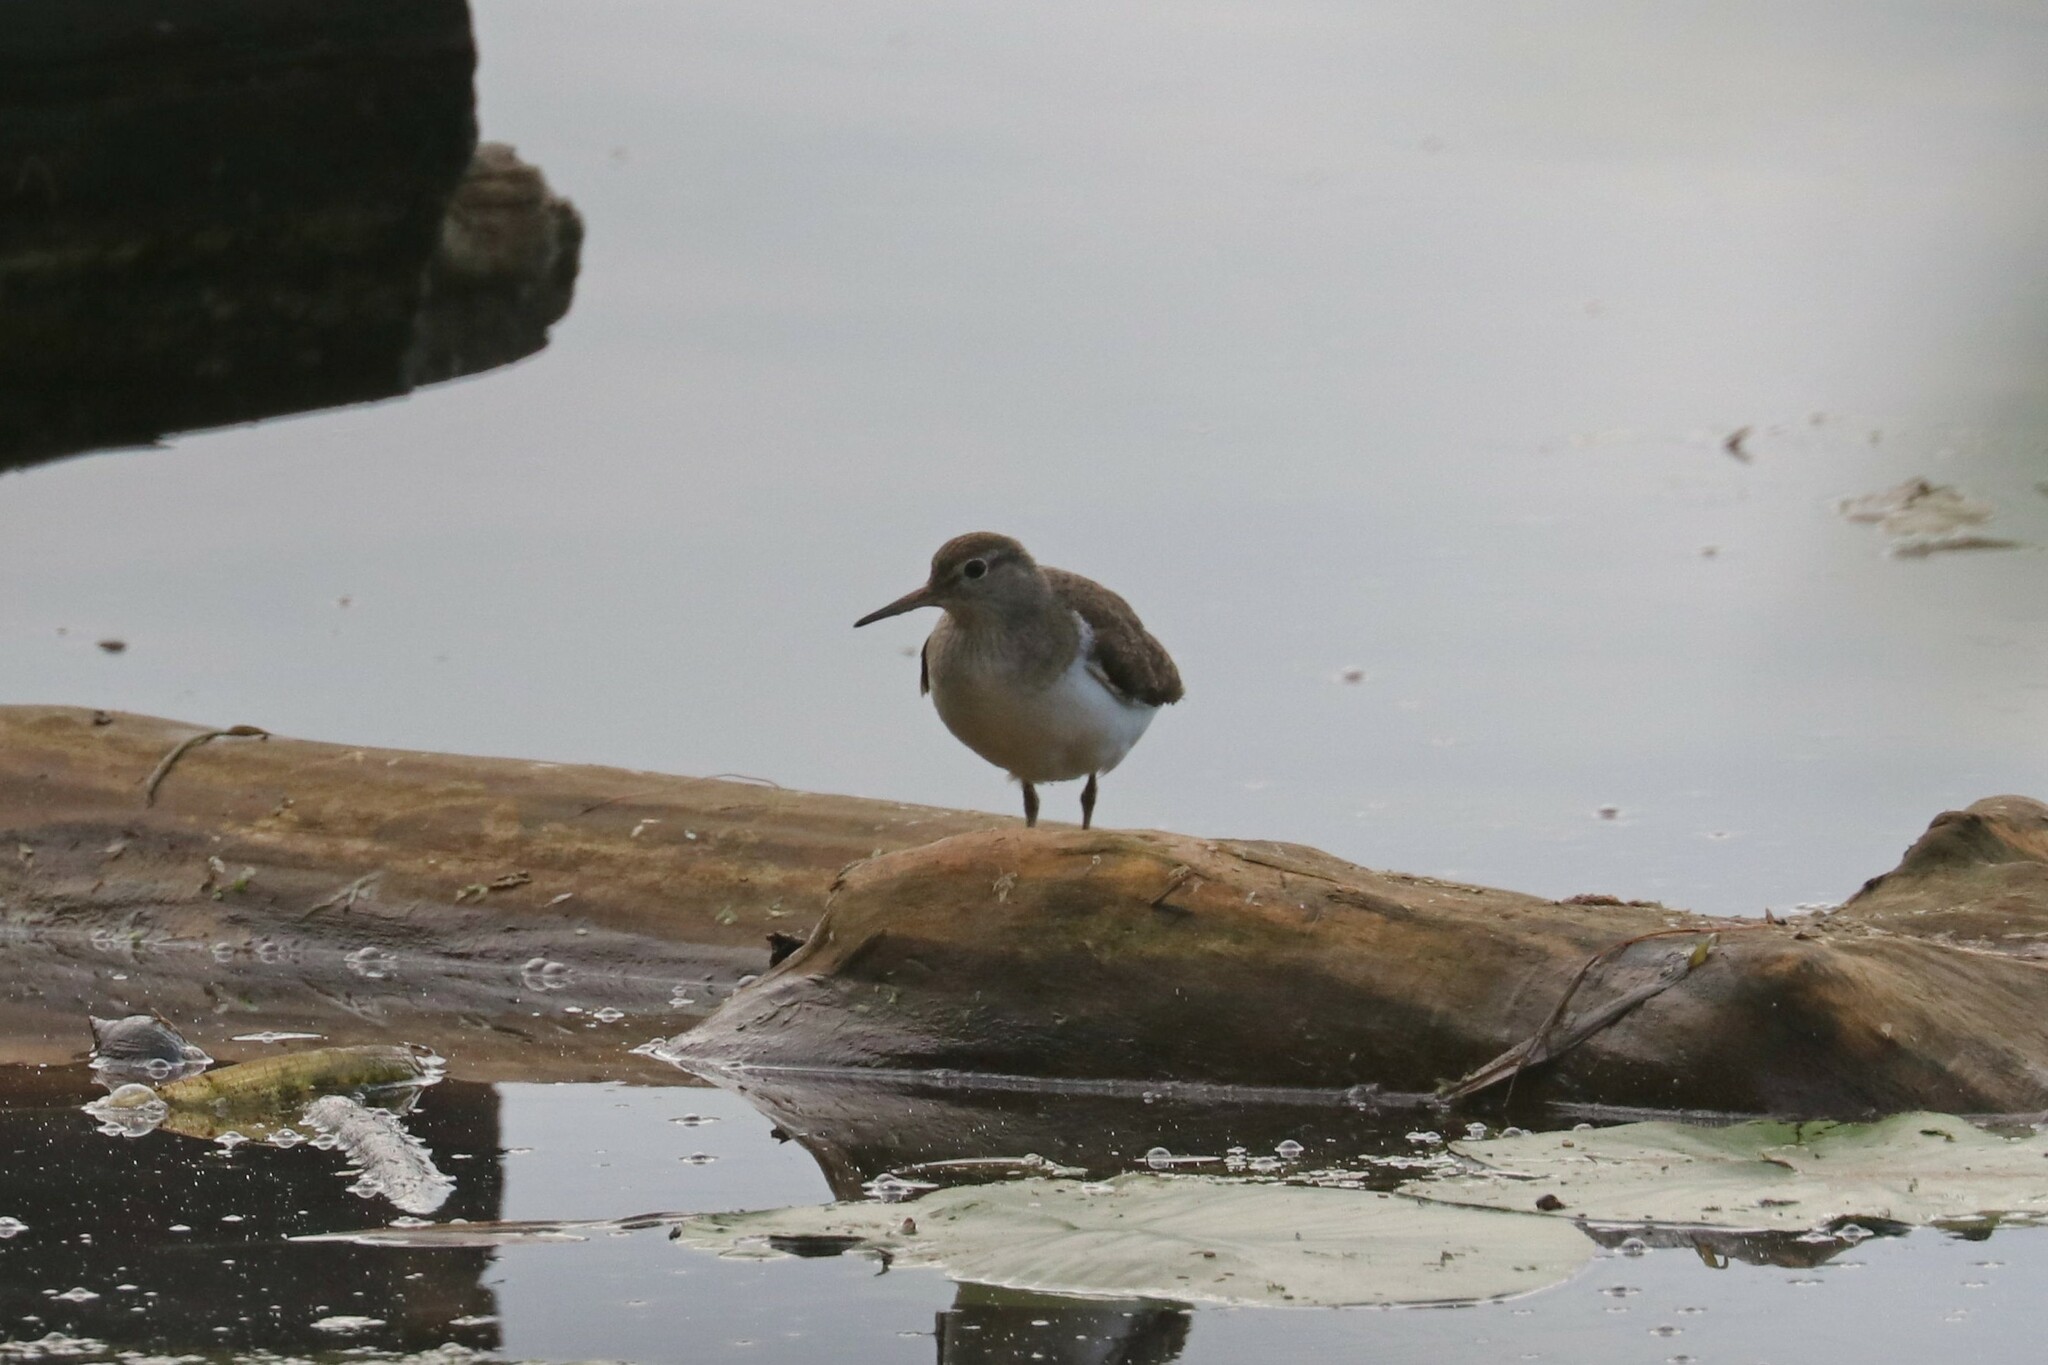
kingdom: Animalia
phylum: Chordata
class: Aves
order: Charadriiformes
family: Scolopacidae
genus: Actitis
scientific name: Actitis hypoleucos
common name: Common sandpiper
